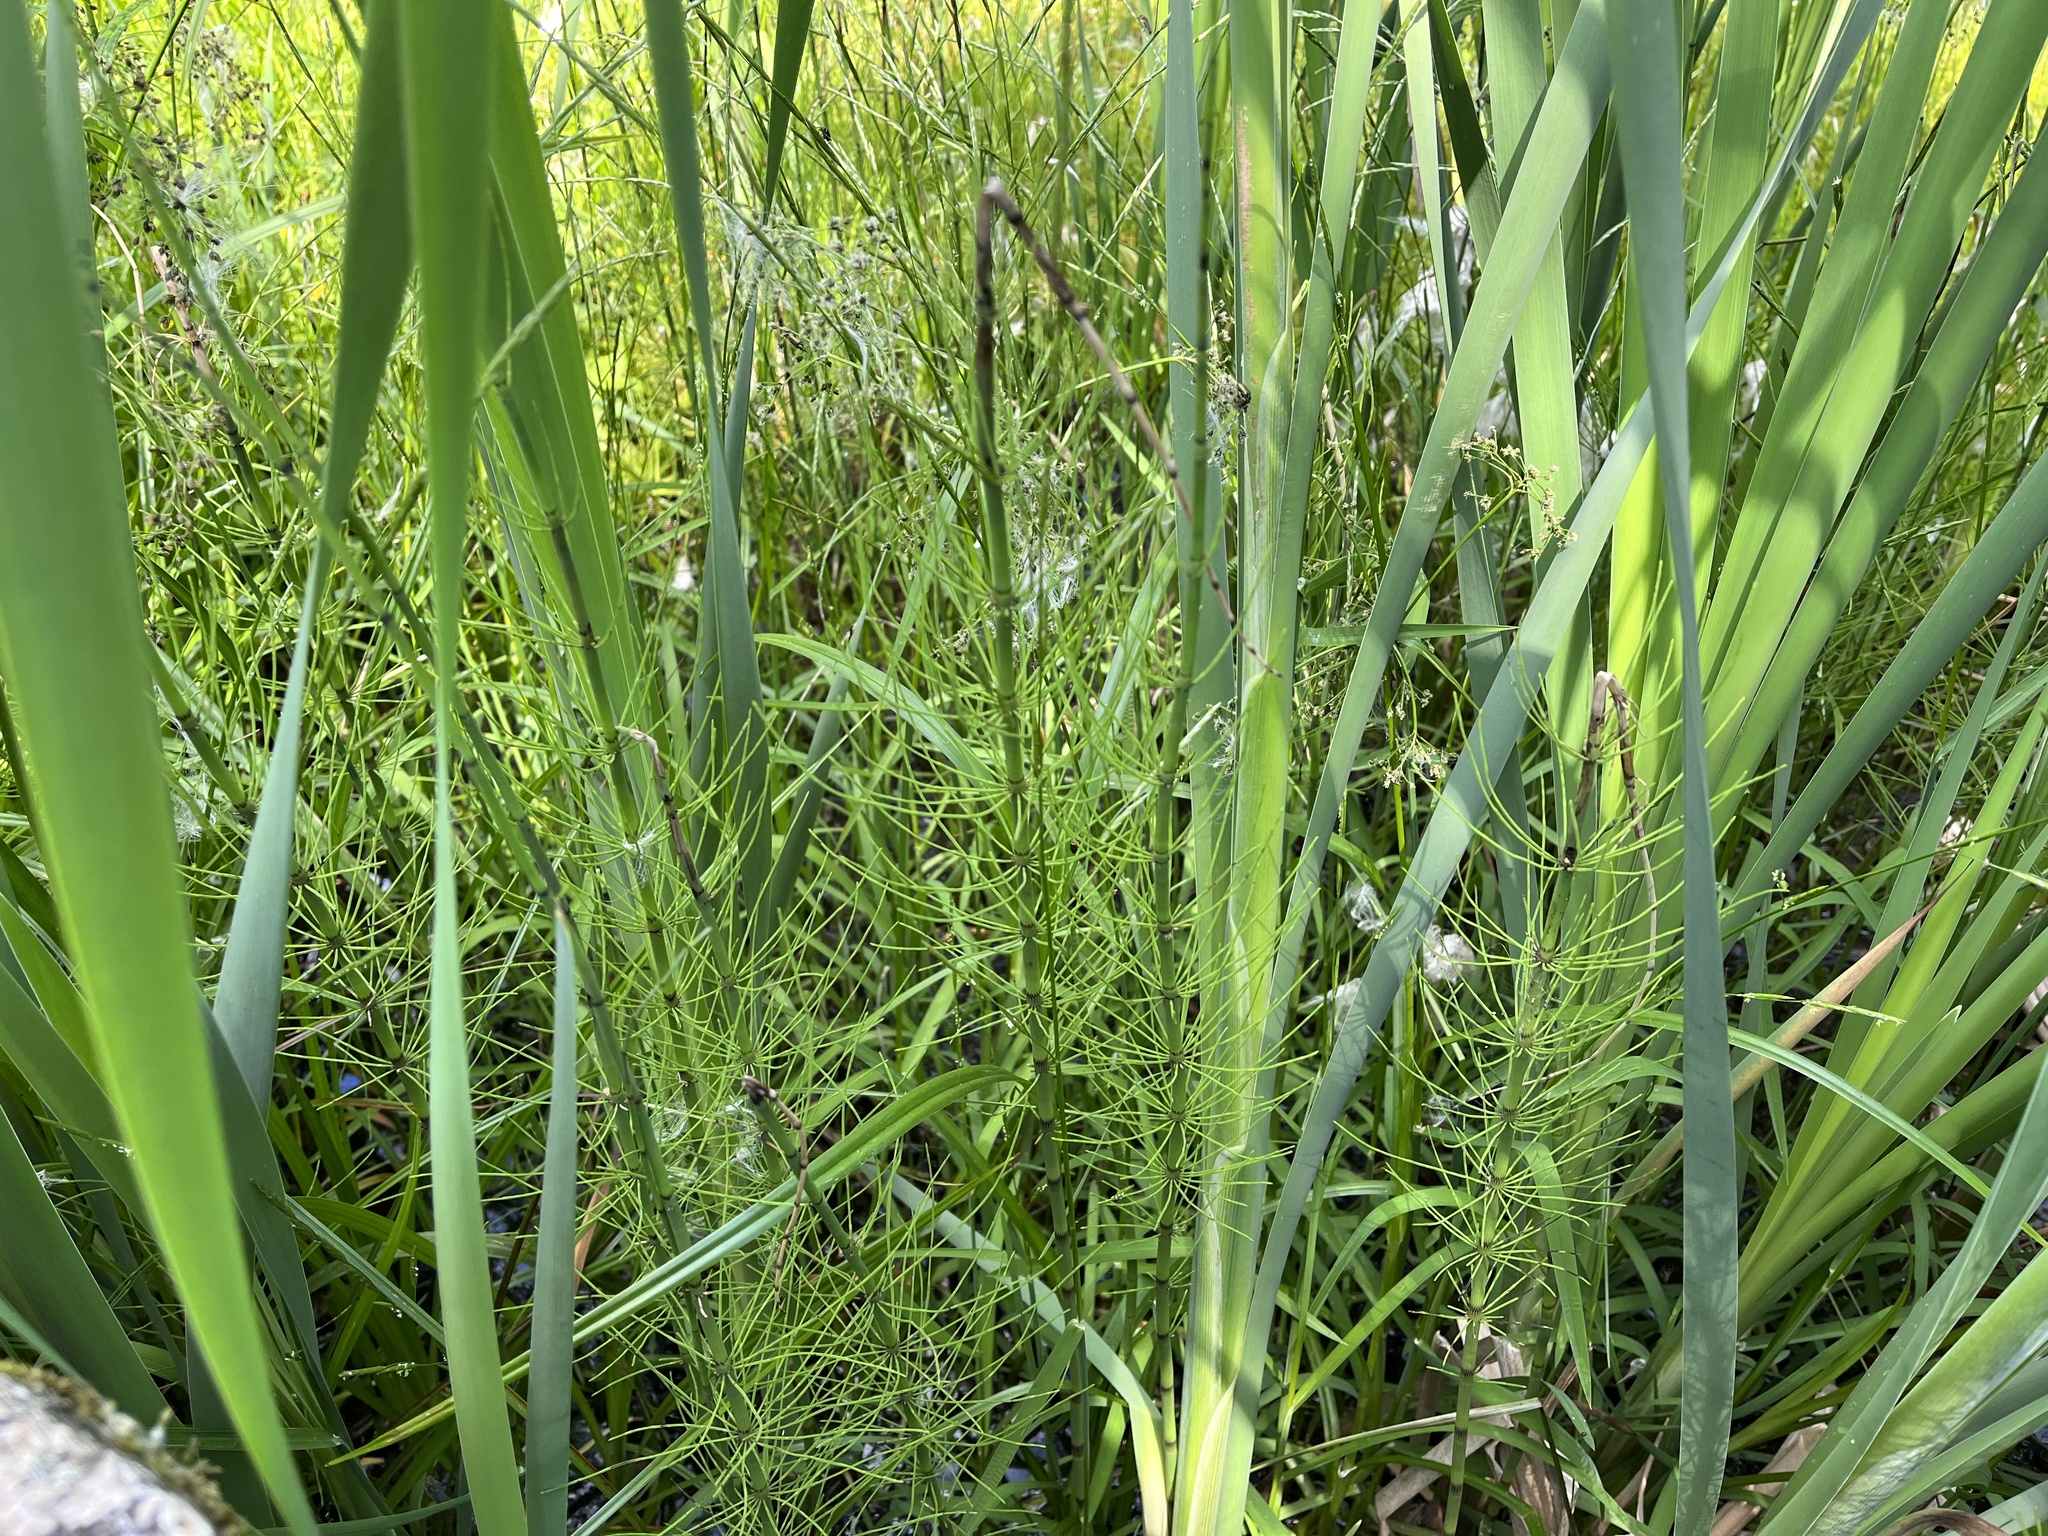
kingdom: Plantae
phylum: Tracheophyta
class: Polypodiopsida
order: Equisetales
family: Equisetaceae
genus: Equisetum
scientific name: Equisetum fluviatile
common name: Water horsetail
